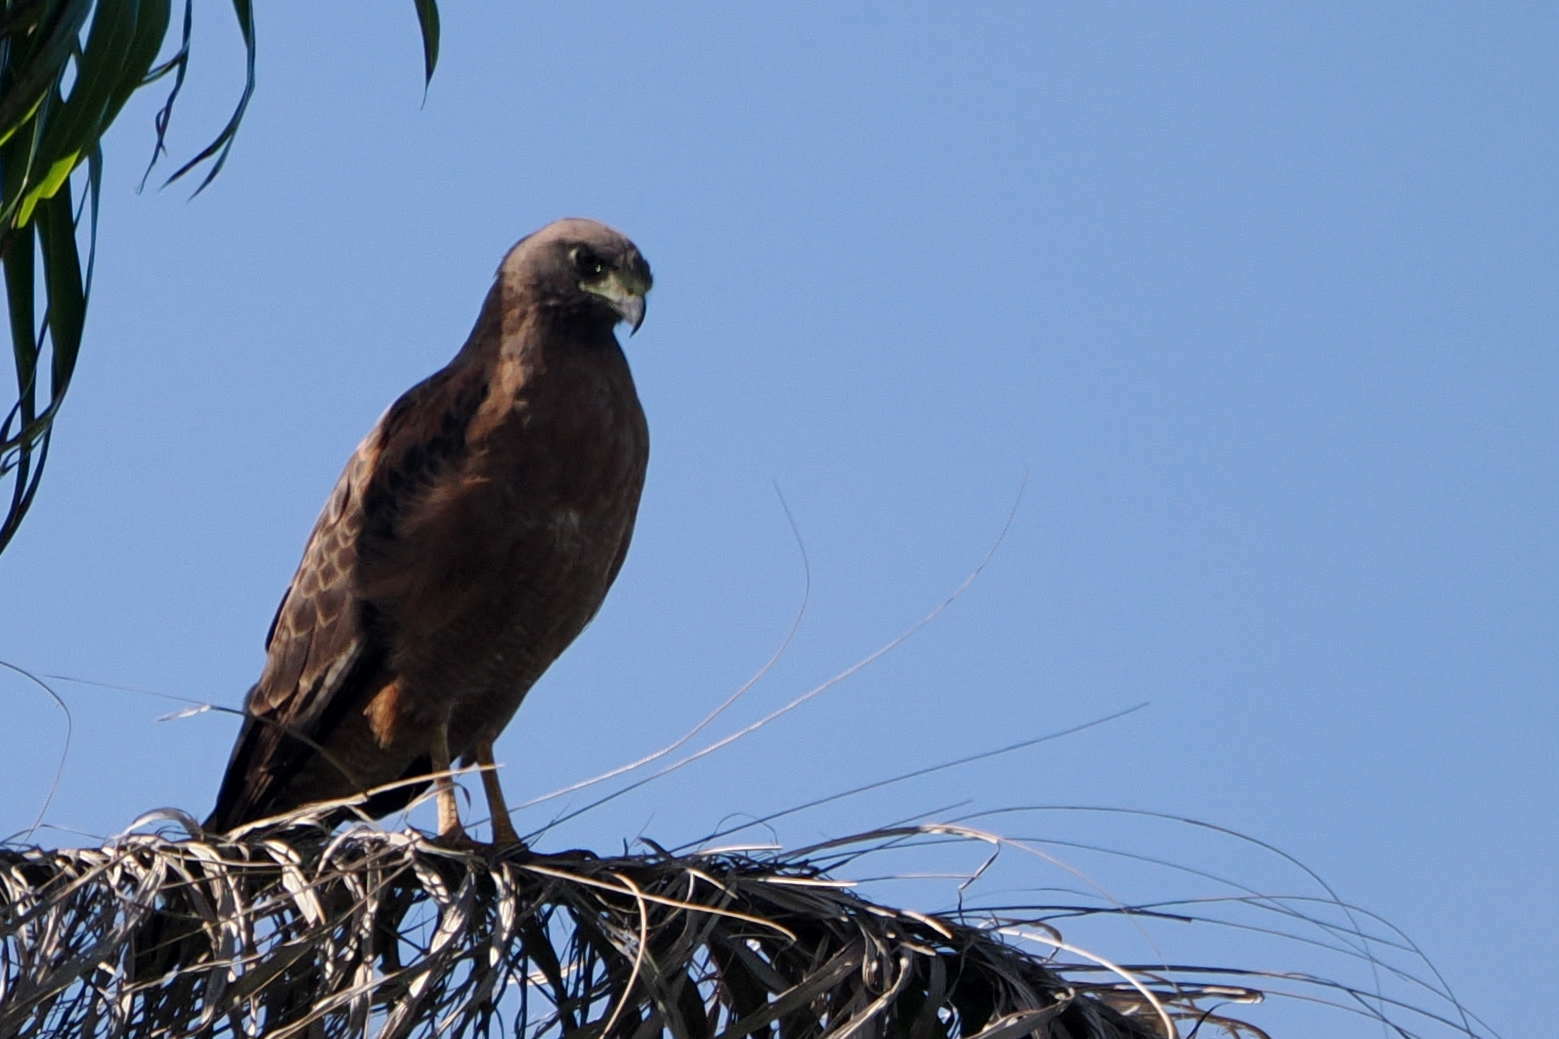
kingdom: Animalia
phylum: Chordata
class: Aves
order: Accipitriformes
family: Accipitridae
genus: Buteogallus
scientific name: Buteogallus meridionalis
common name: Savanna hawk
